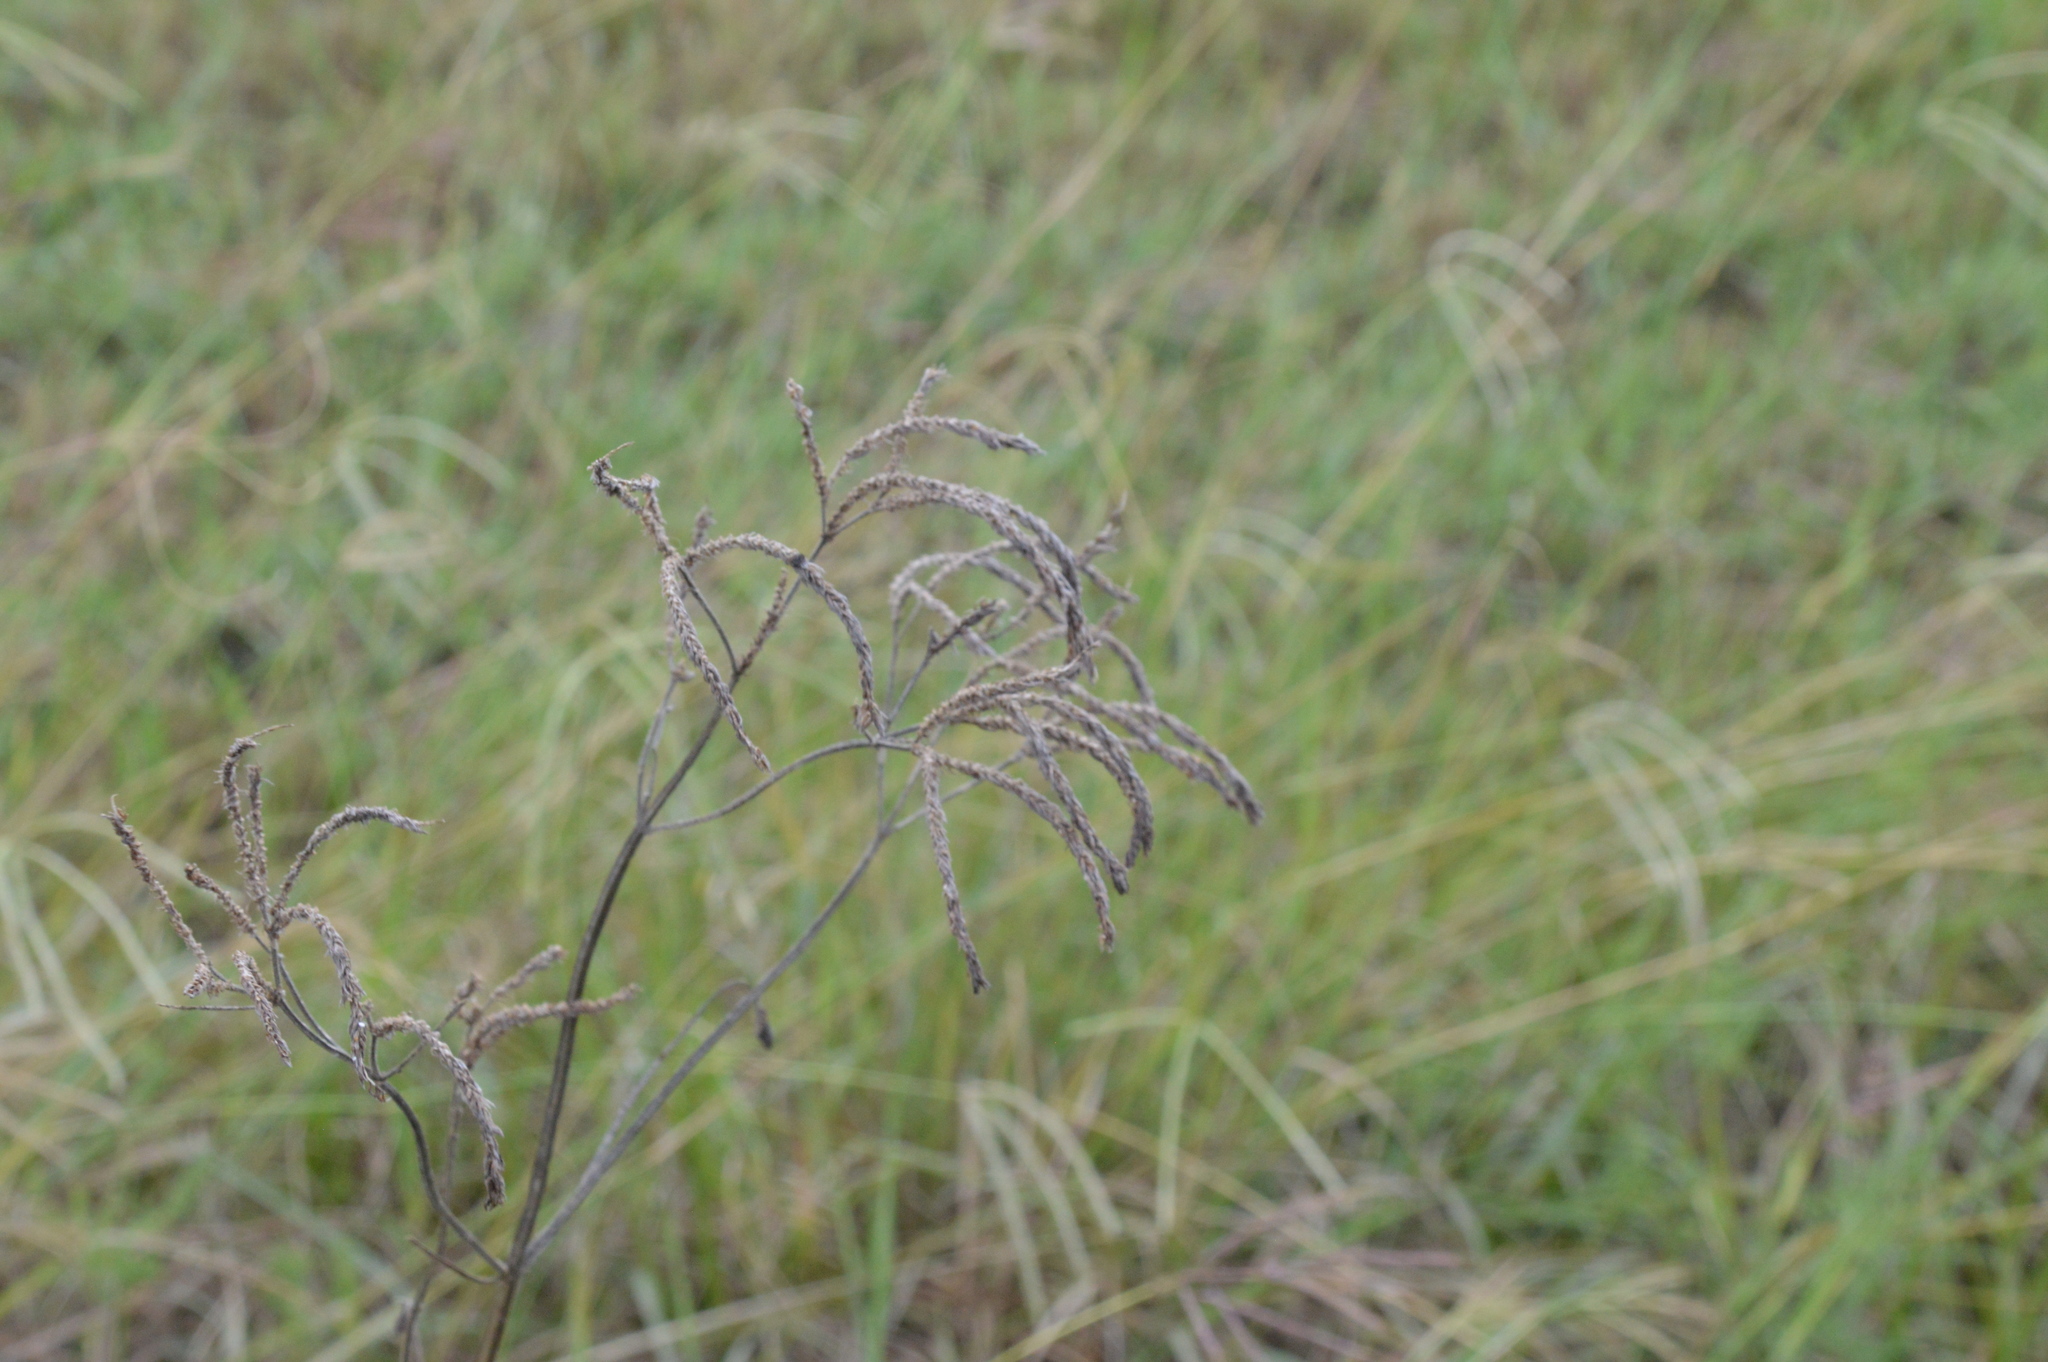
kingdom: Plantae
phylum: Tracheophyta
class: Magnoliopsida
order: Lamiales
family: Verbenaceae
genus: Verbena
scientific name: Verbena brasiliensis
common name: Brazilian vervain
